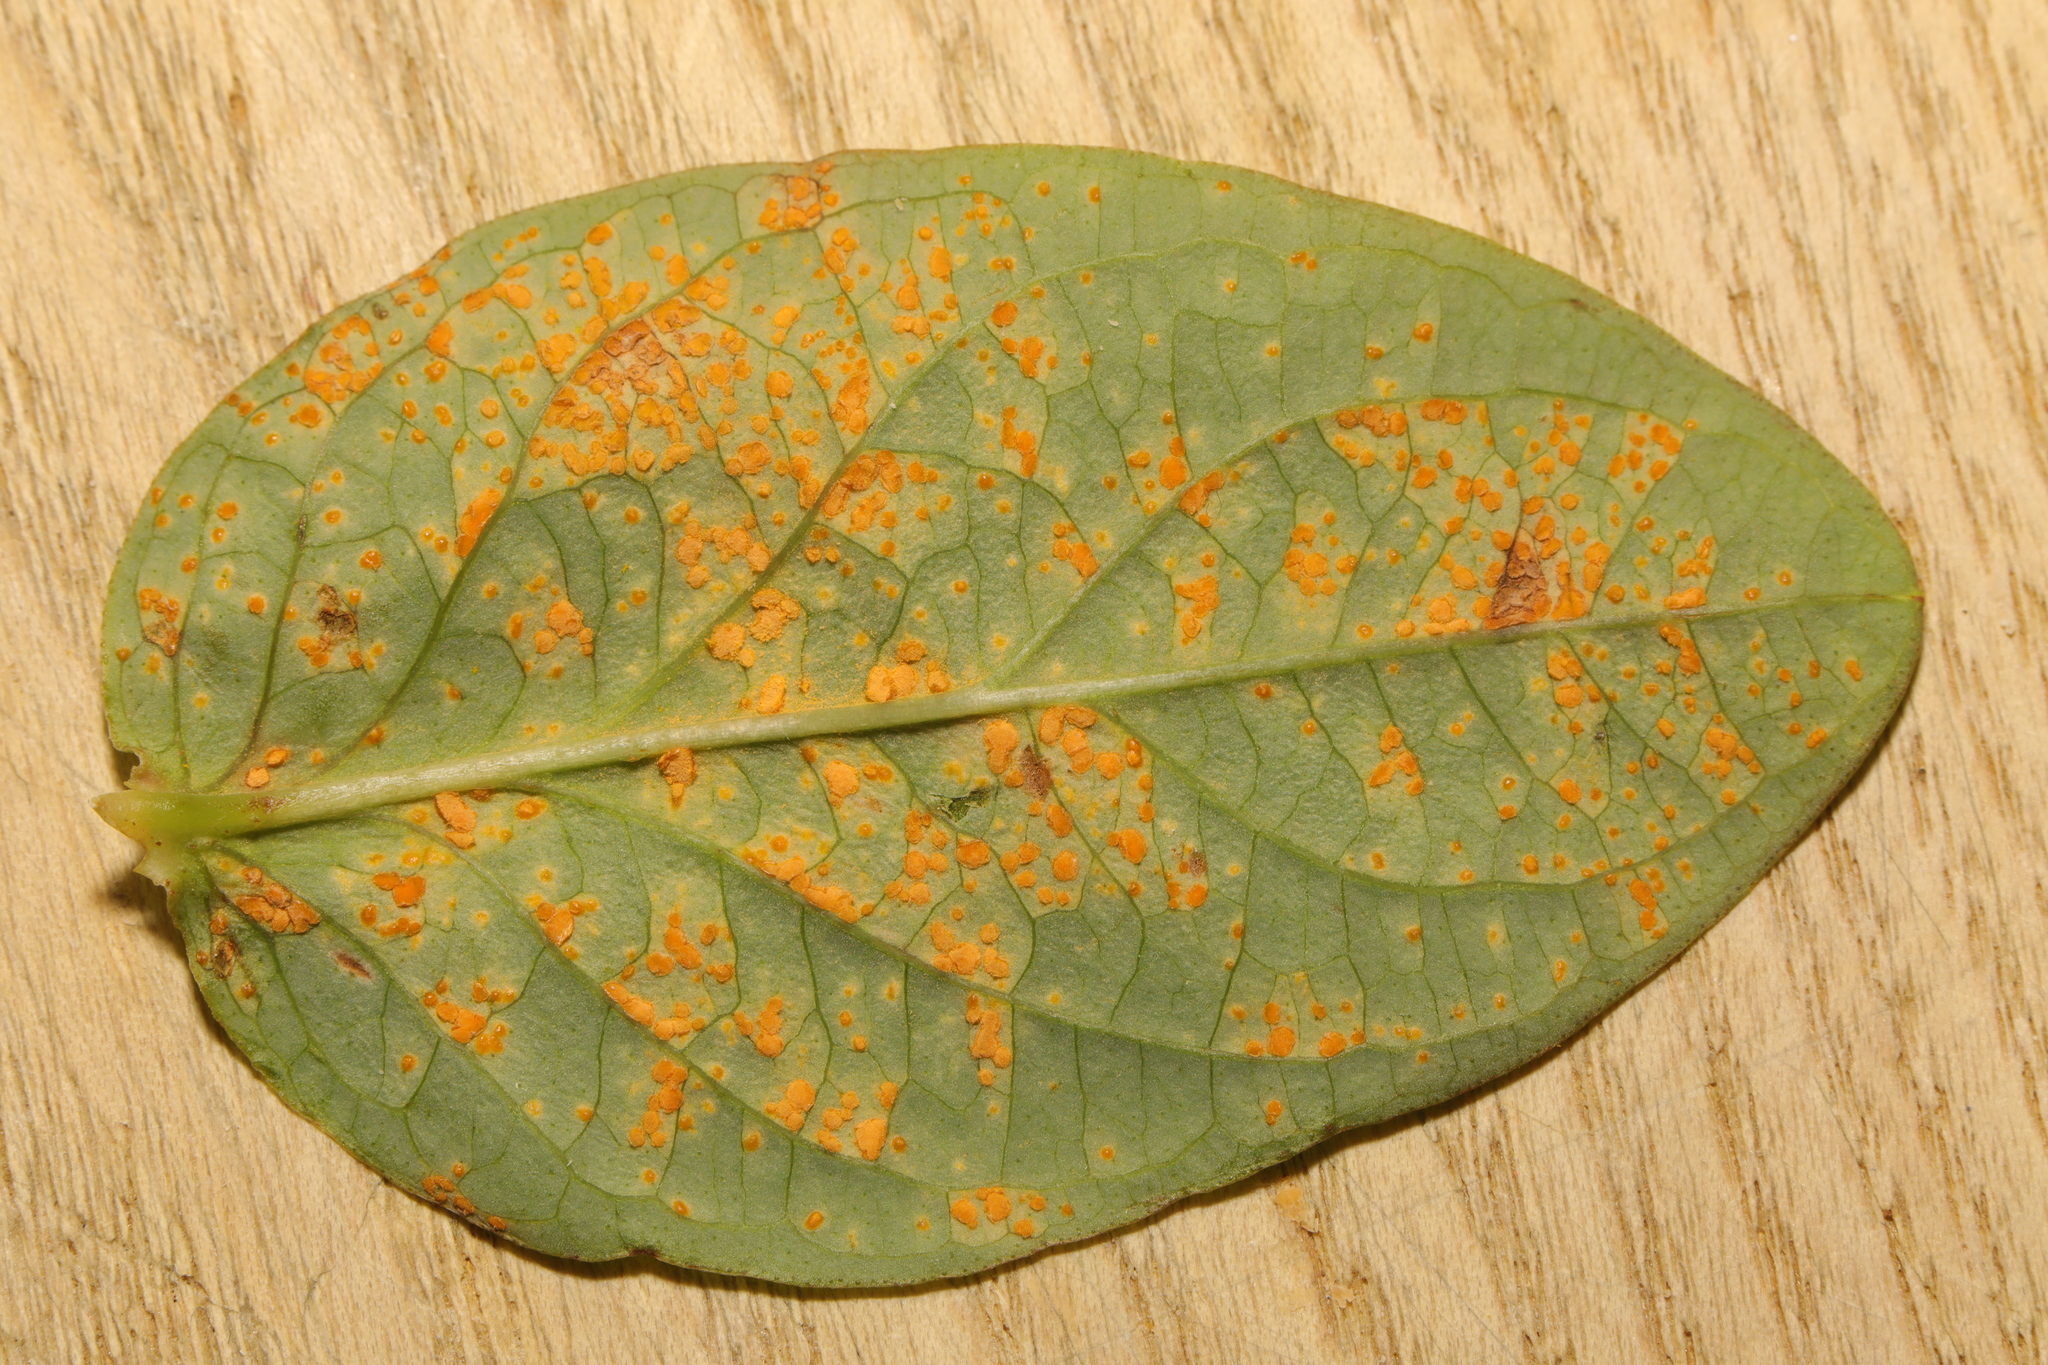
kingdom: Fungi
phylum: Basidiomycota
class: Pucciniomycetes
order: Pucciniales
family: Melampsoraceae
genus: Melampsora
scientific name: Melampsora
